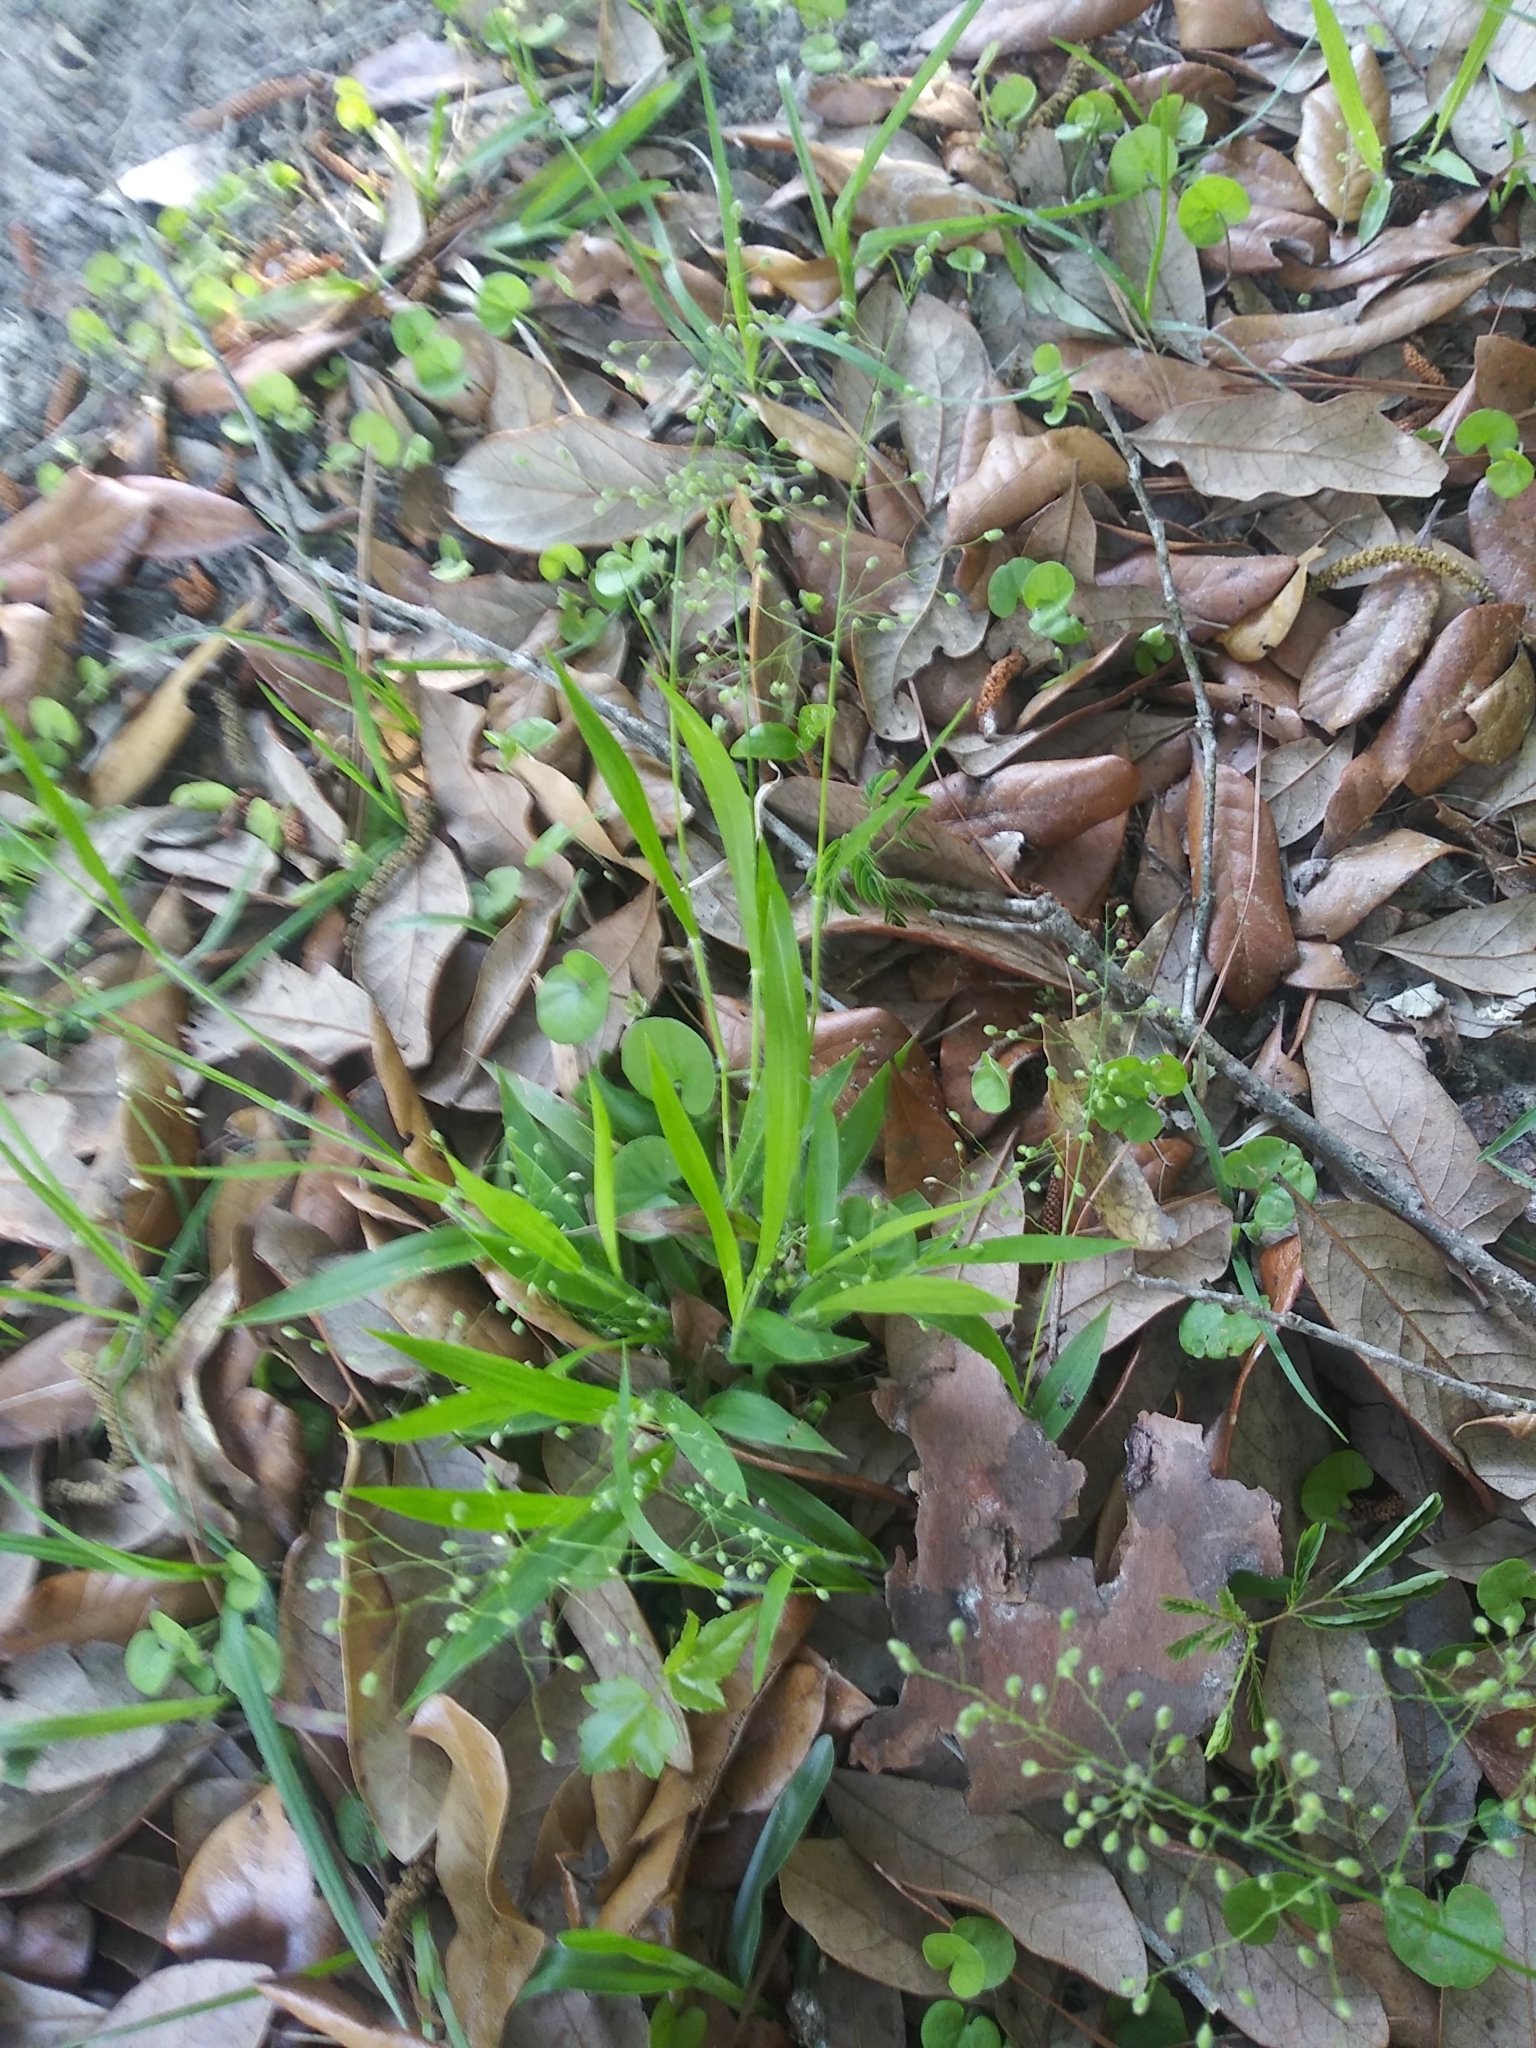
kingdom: Plantae
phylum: Tracheophyta
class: Liliopsida
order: Poales
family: Poaceae
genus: Dichanthelium
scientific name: Dichanthelium laxiflorum
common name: Soft-tuft panic grass
